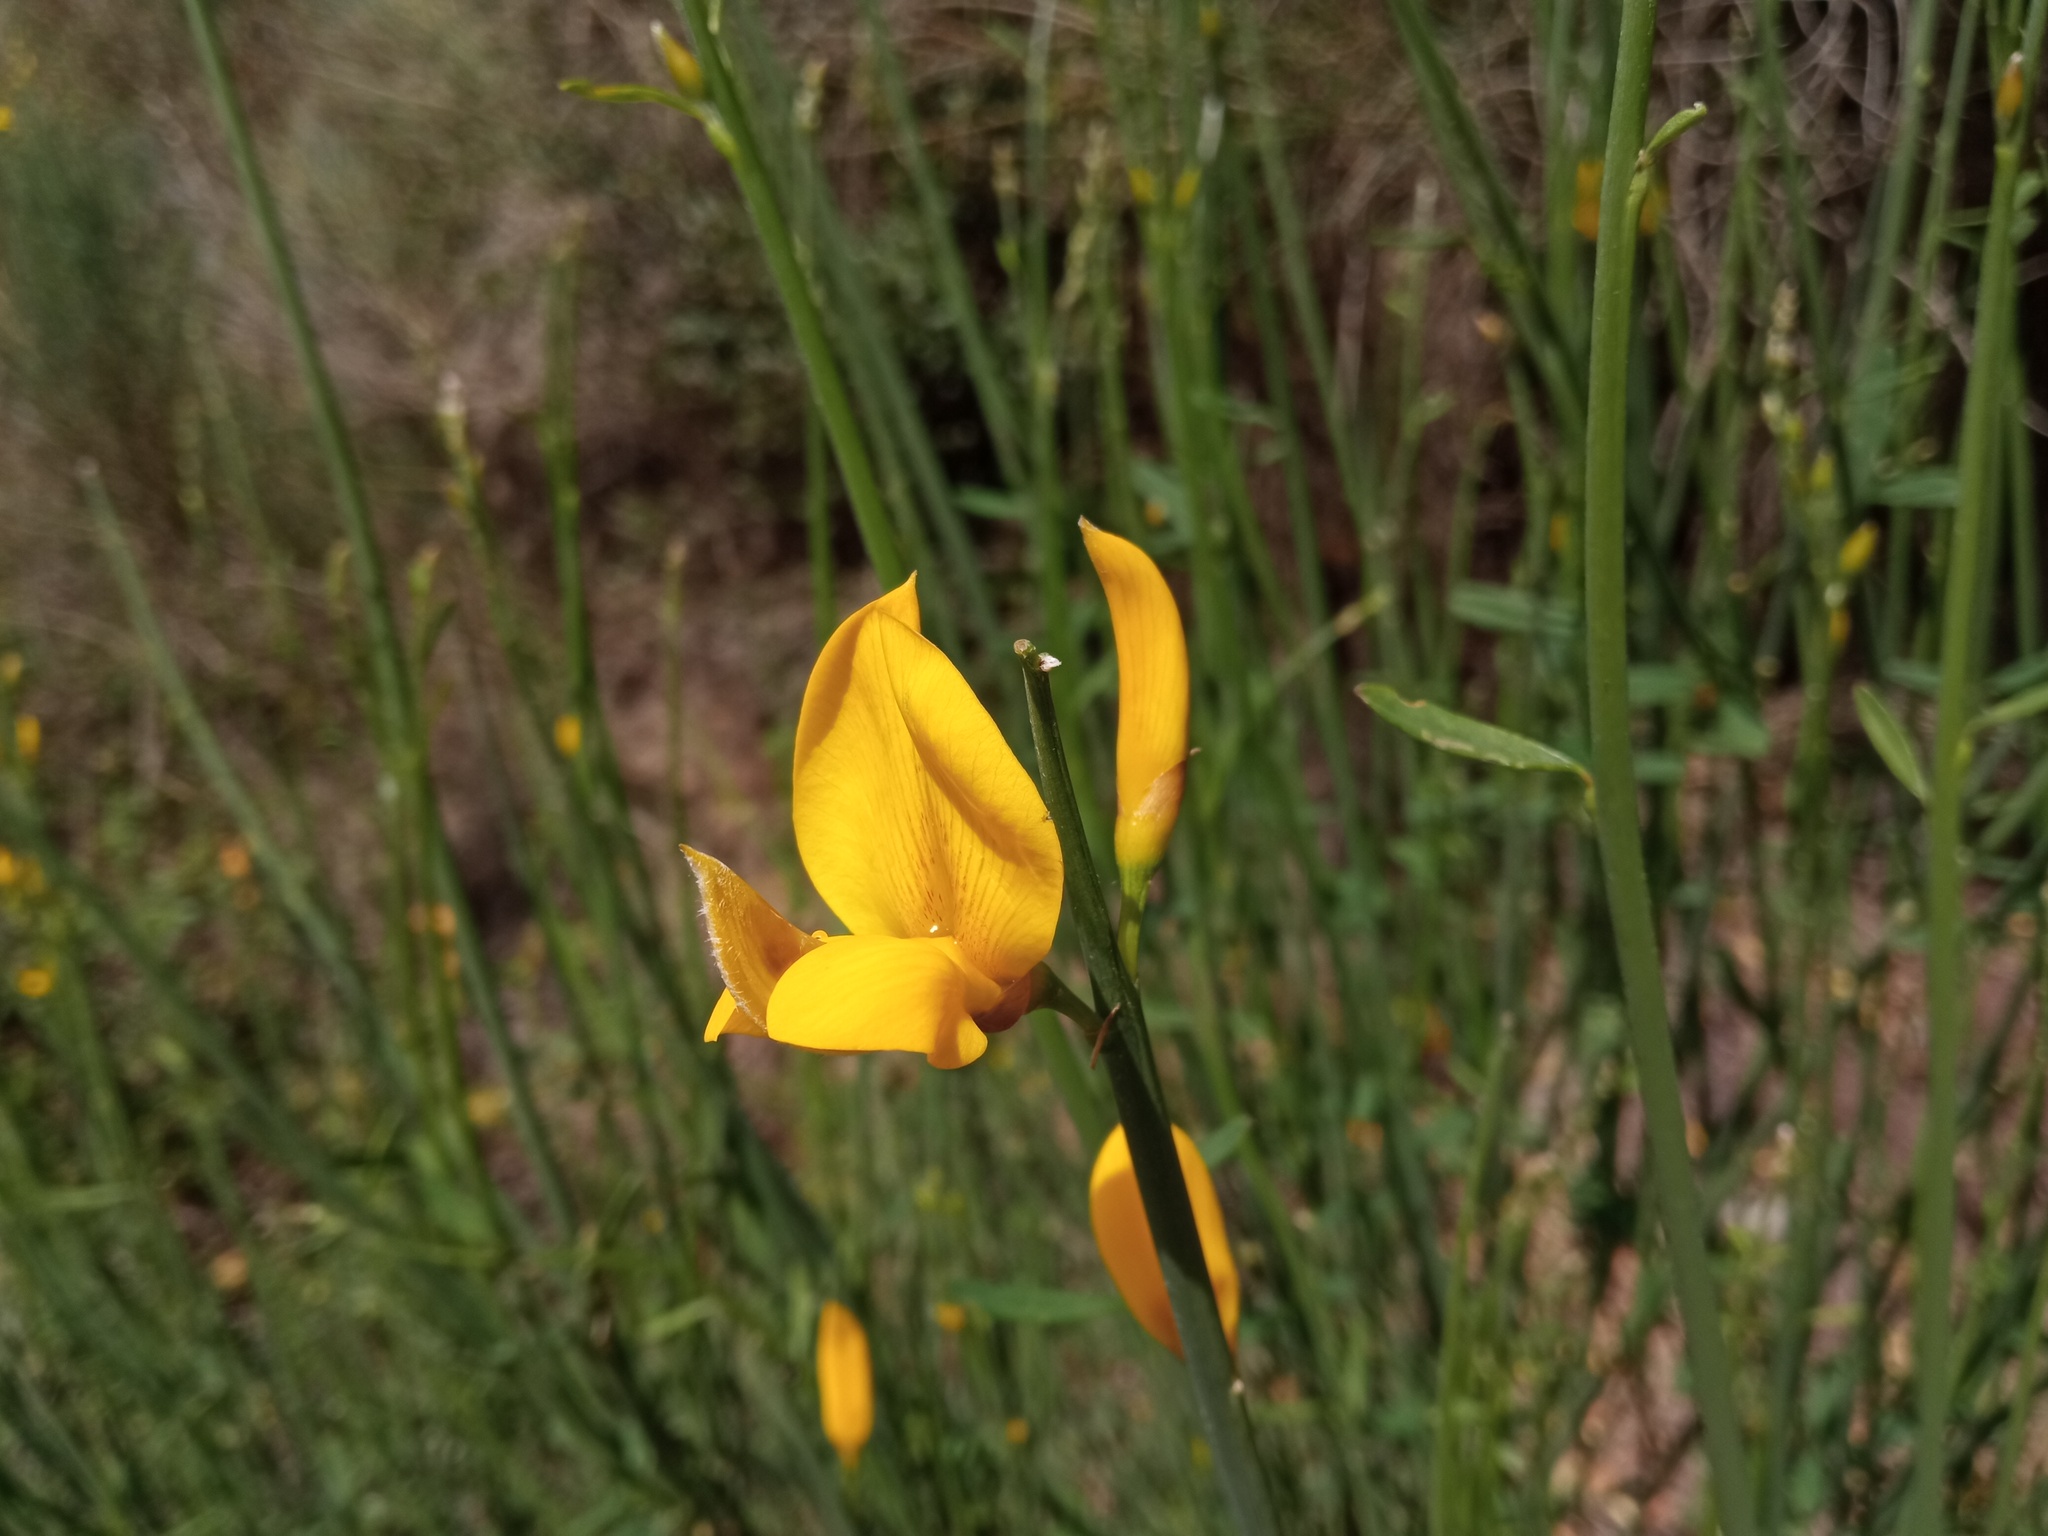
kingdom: Plantae
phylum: Tracheophyta
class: Magnoliopsida
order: Fabales
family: Fabaceae
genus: Spartium
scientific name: Spartium junceum
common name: Spanish broom
